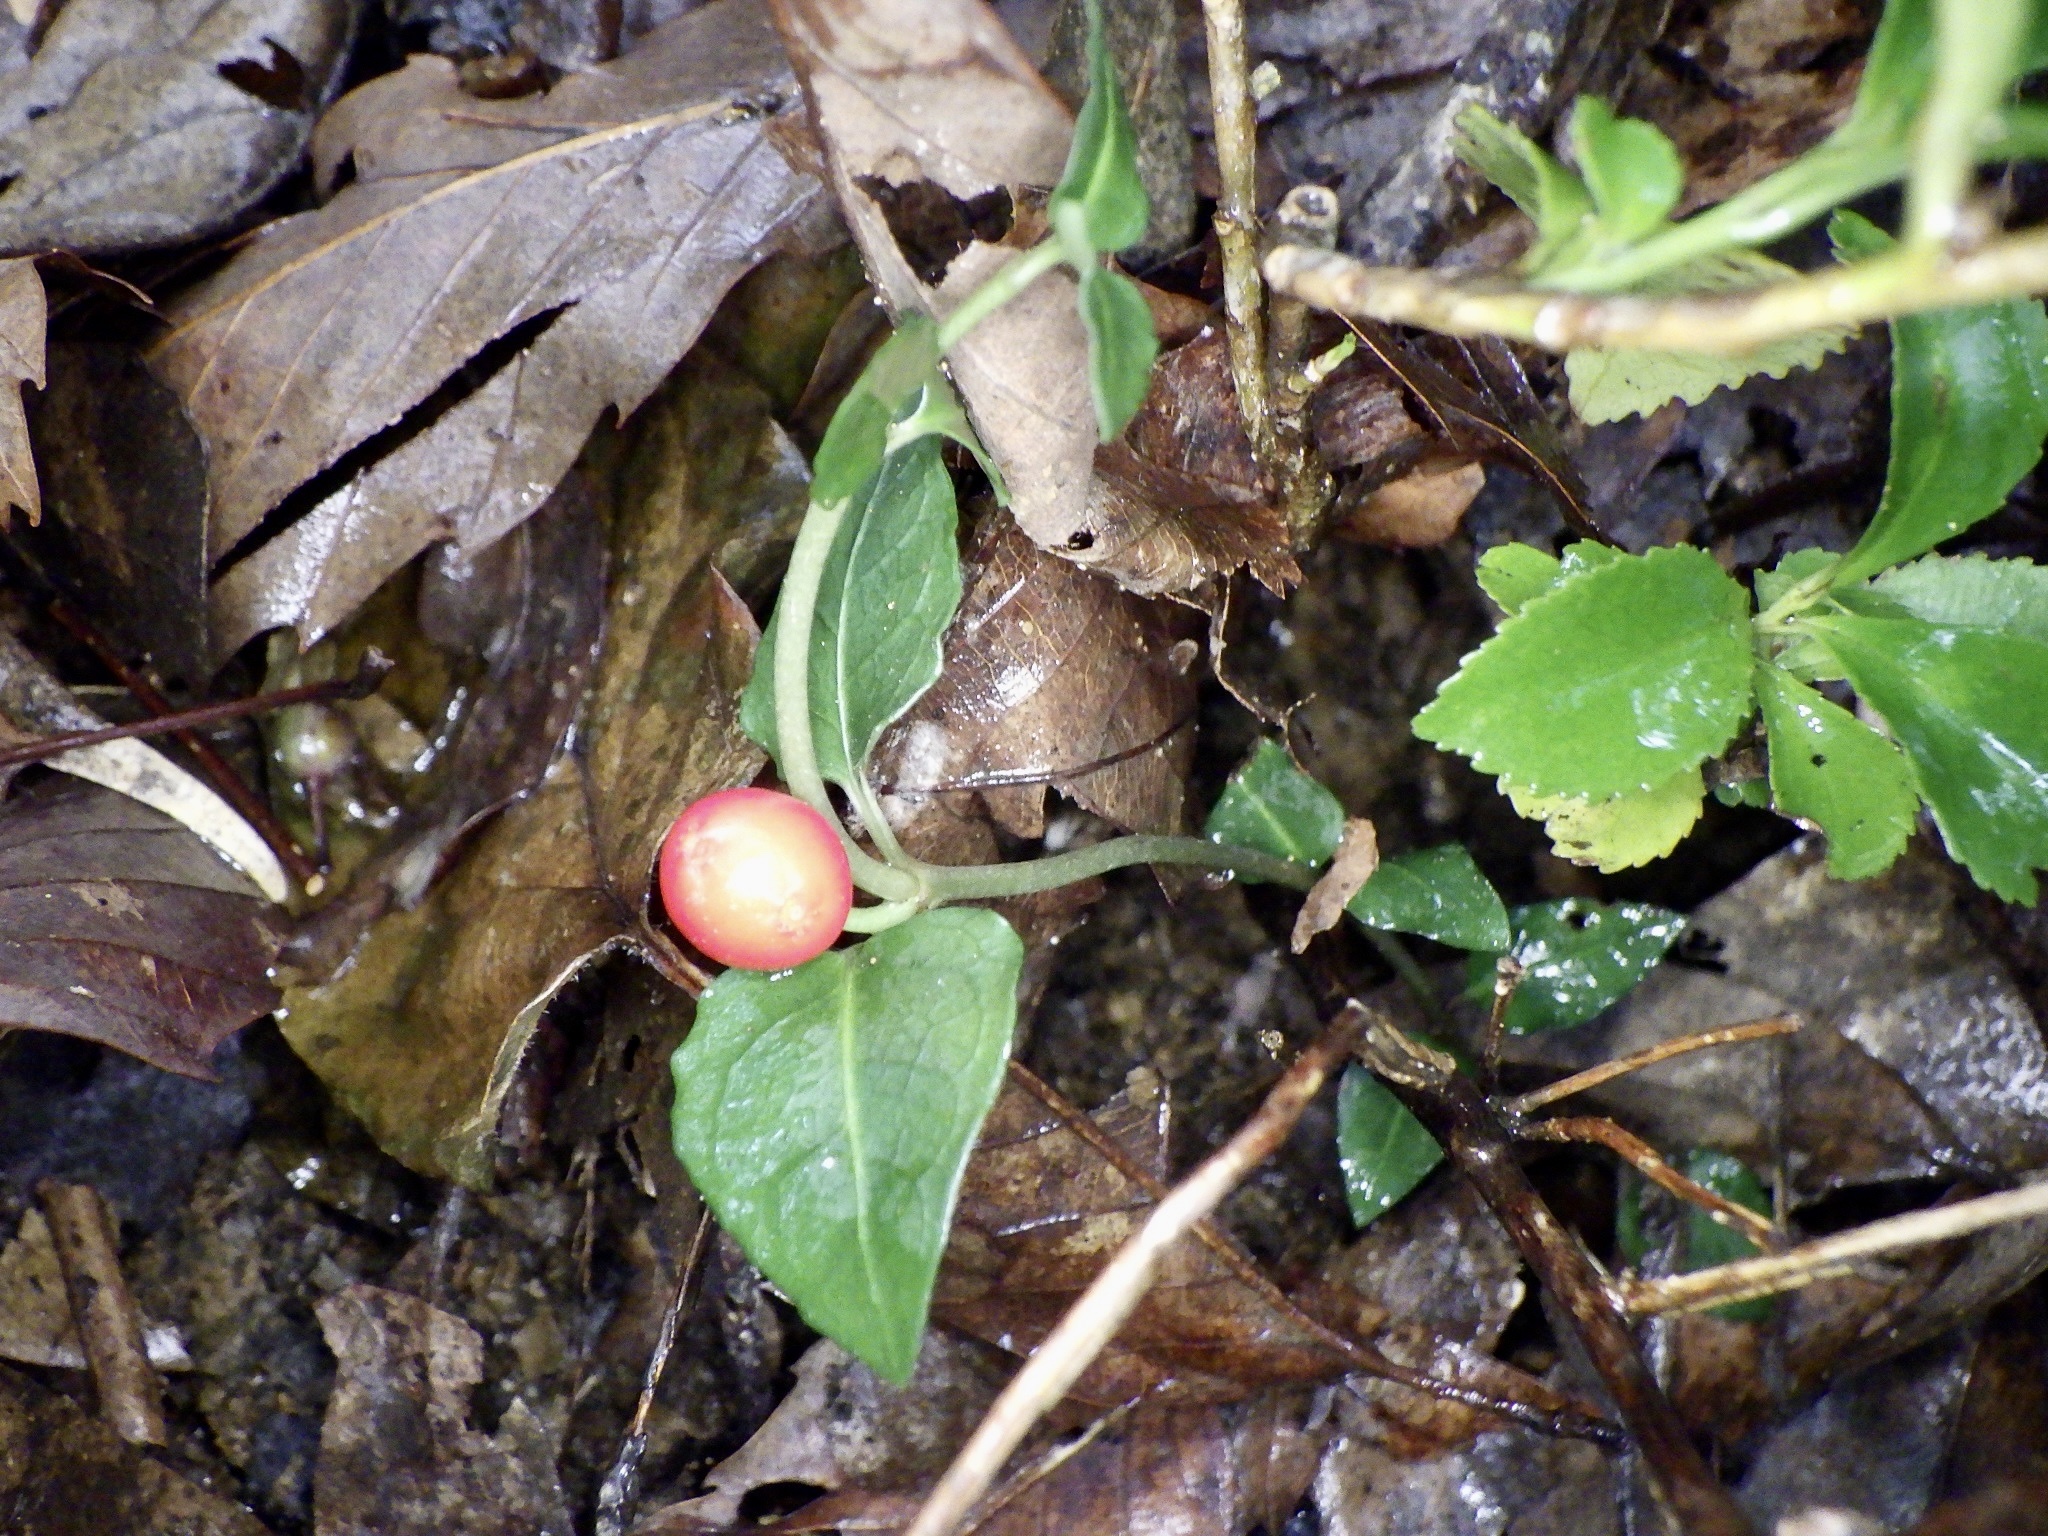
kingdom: Plantae
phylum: Tracheophyta
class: Magnoliopsida
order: Gentianales
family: Rubiaceae
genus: Mitchella
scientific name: Mitchella undulata
